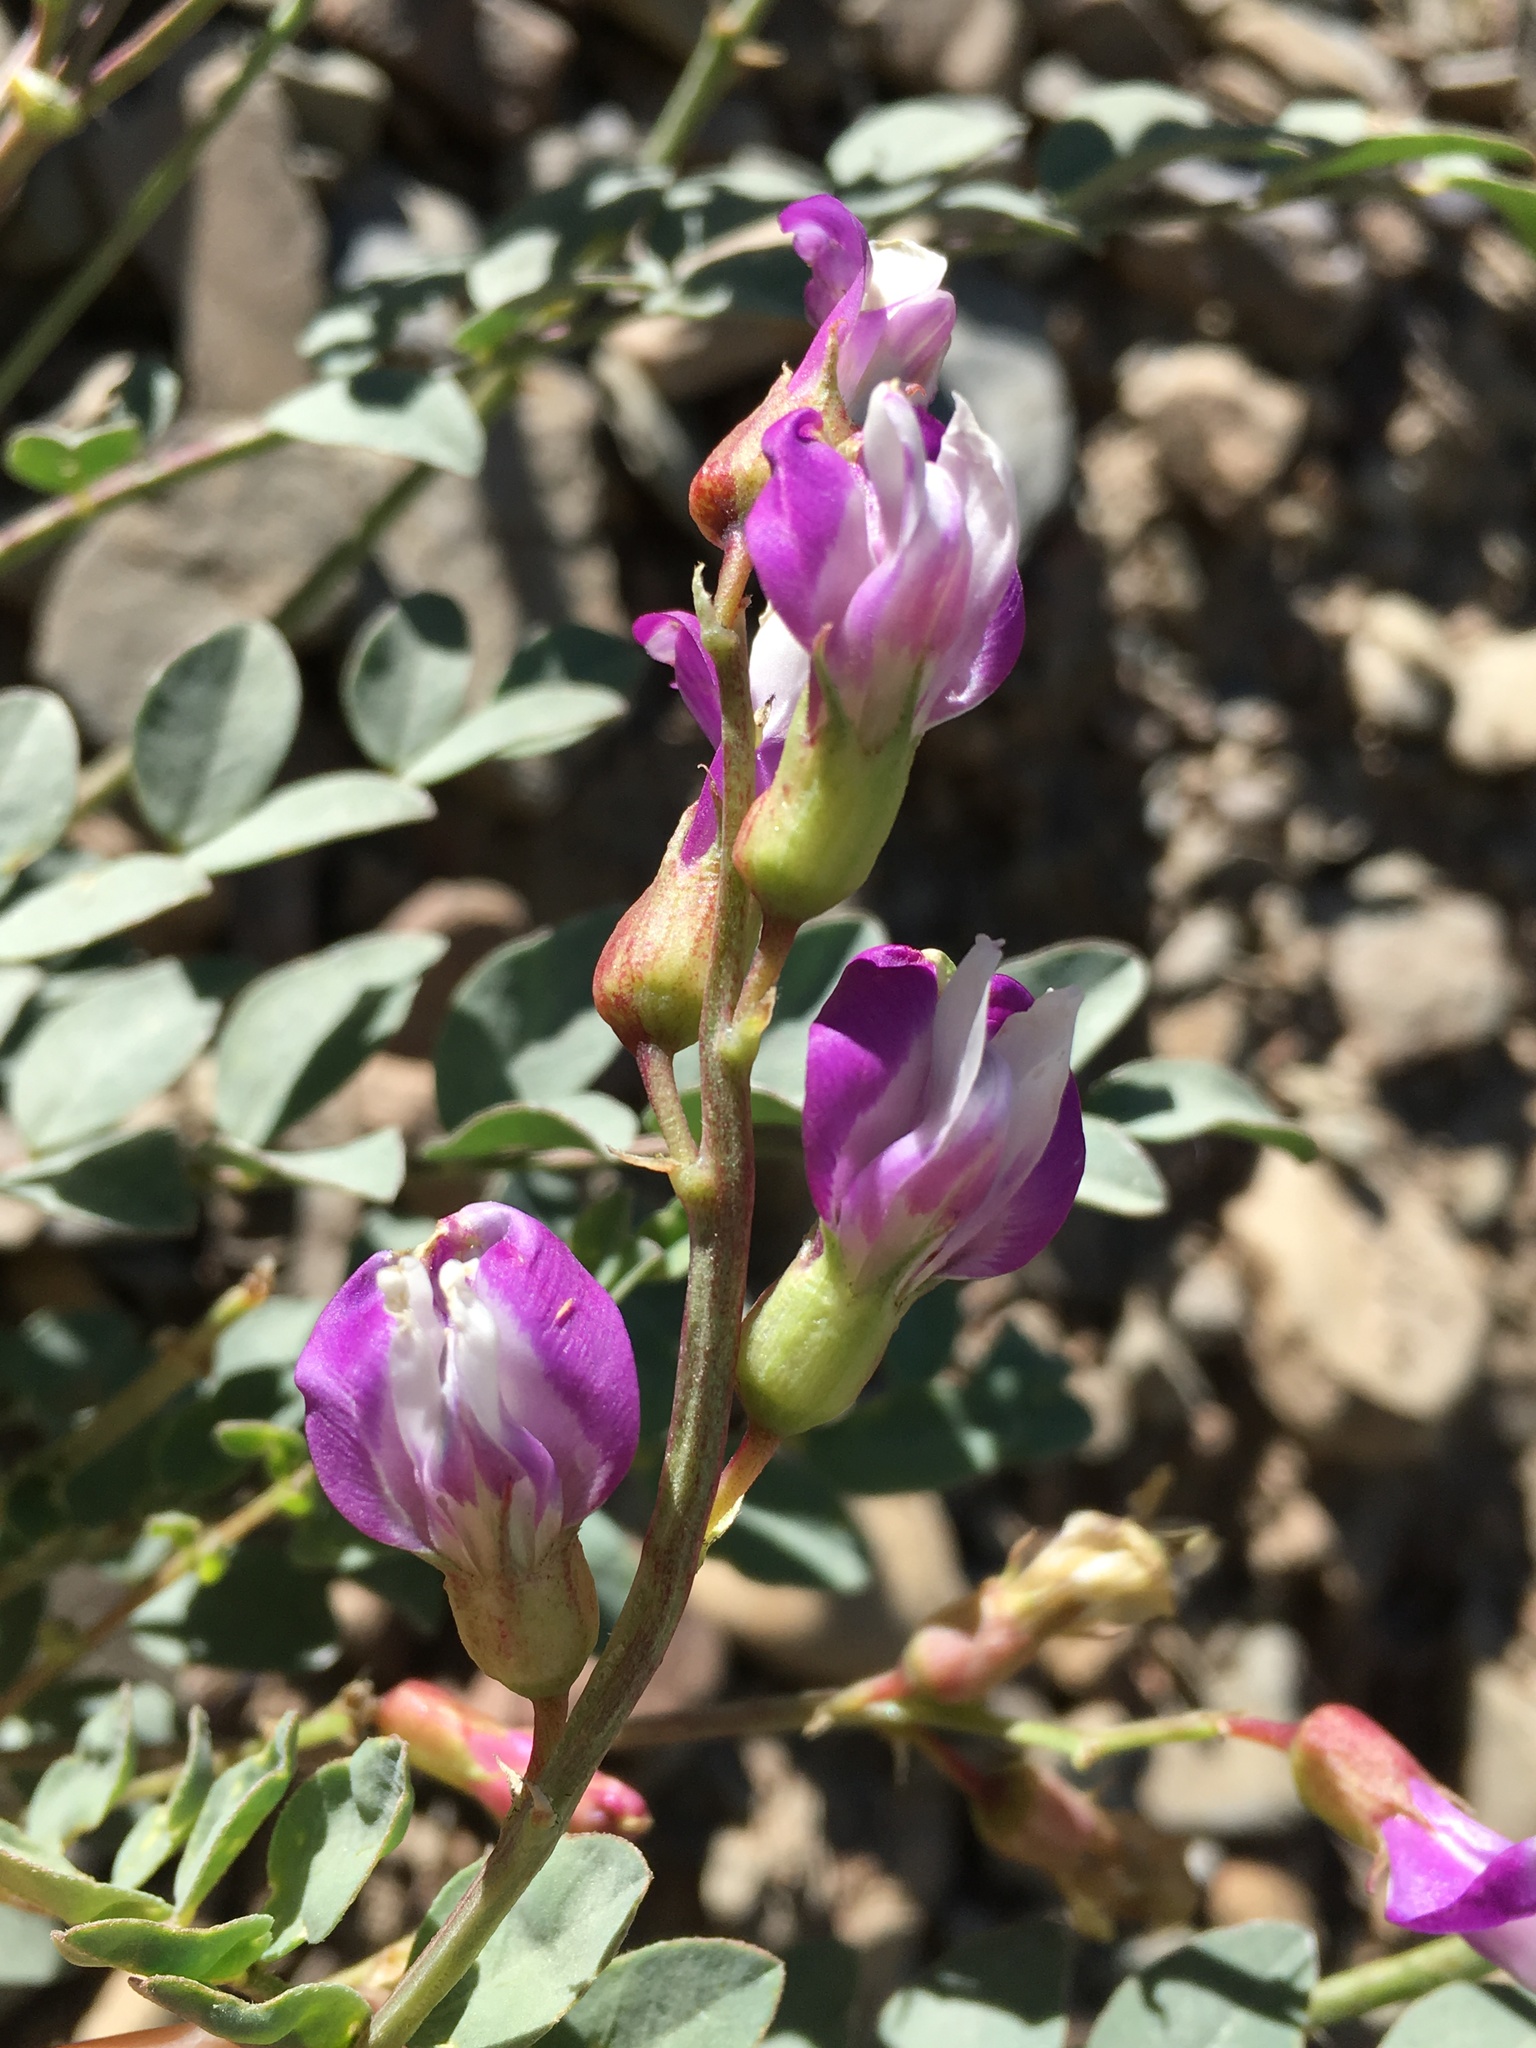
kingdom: Plantae
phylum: Tracheophyta
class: Magnoliopsida
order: Fabales
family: Fabaceae
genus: Astragalus
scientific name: Astragalus oophorus
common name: Egg milkvetch
